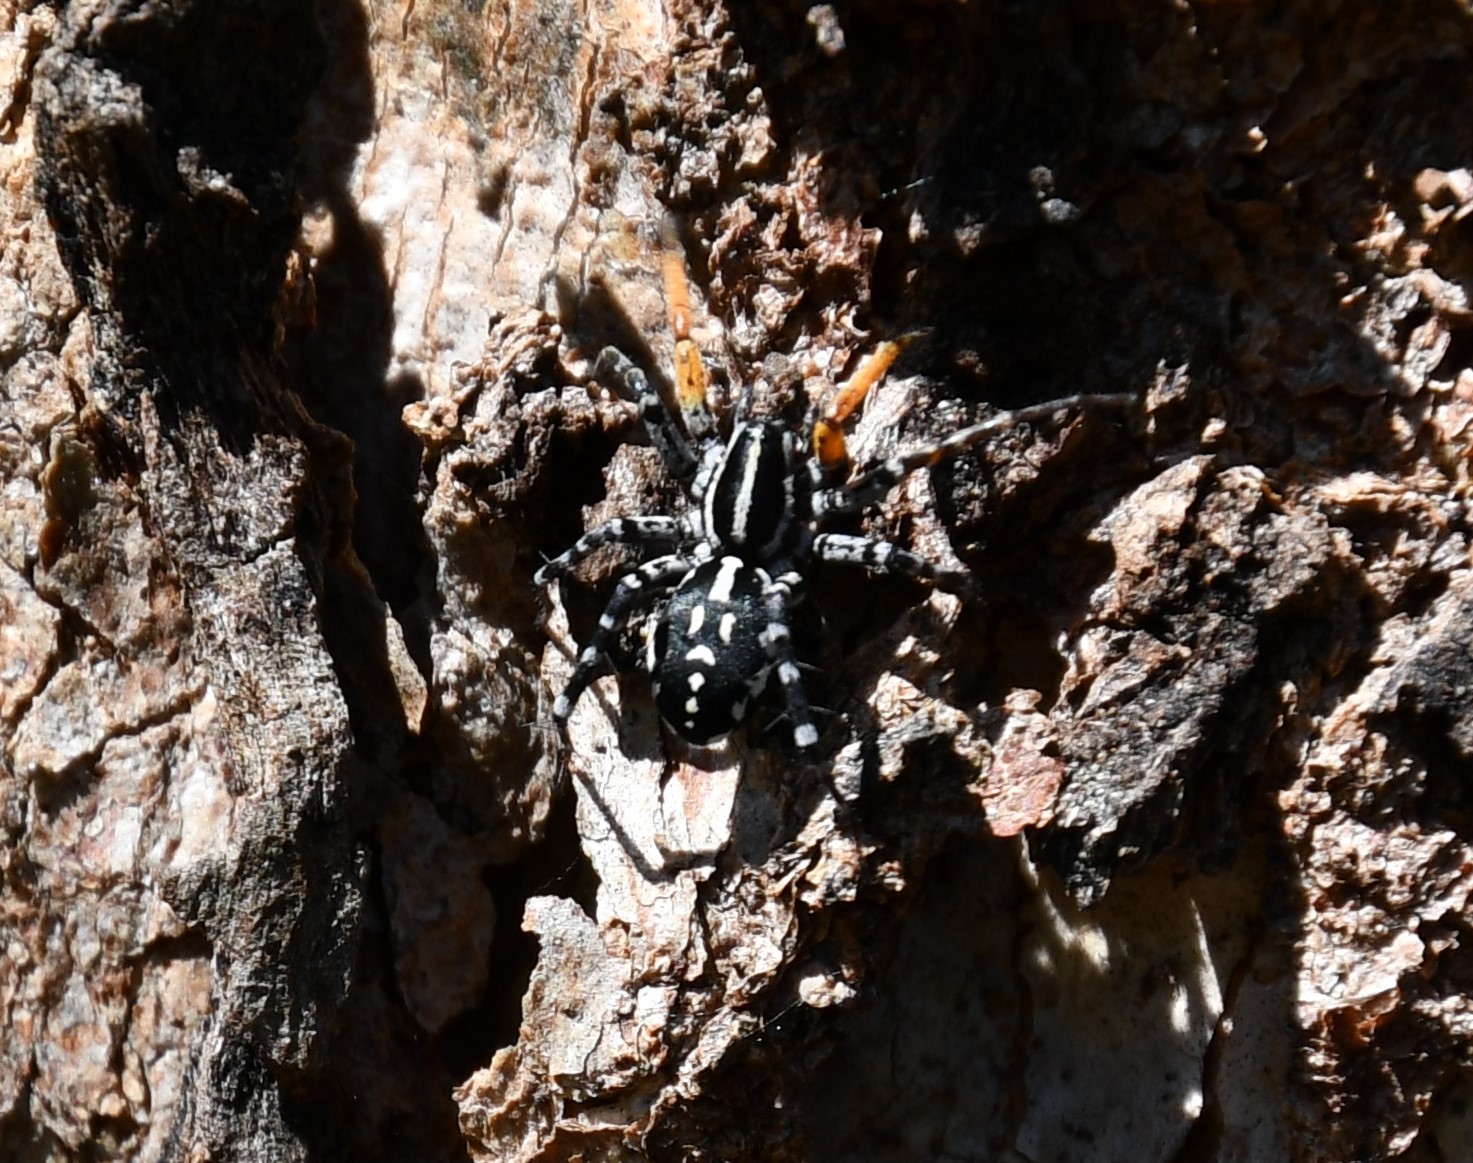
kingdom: Animalia
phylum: Arthropoda
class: Arachnida
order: Araneae
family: Corinnidae
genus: Nyssus
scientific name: Nyssus coloripes
